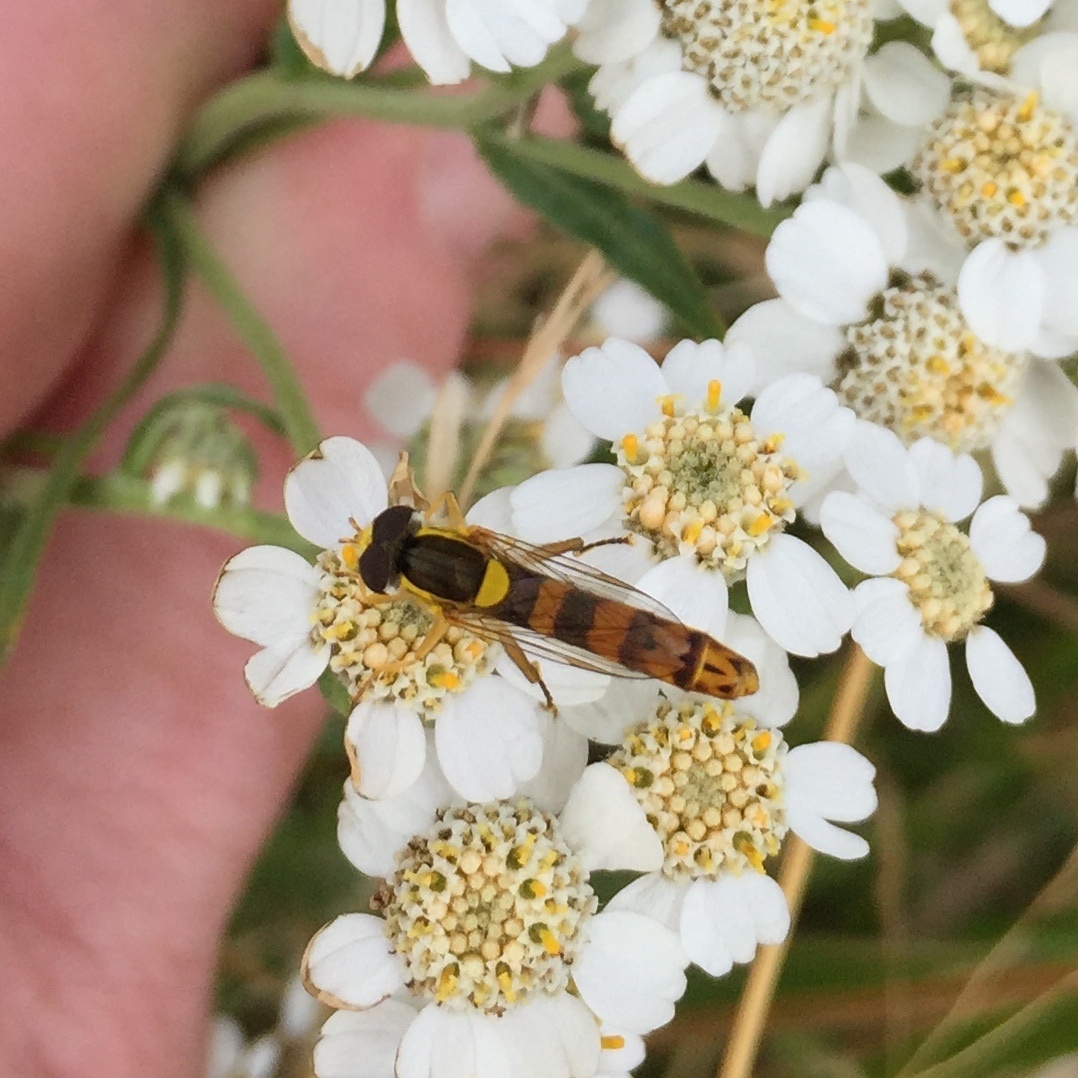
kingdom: Animalia
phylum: Arthropoda
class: Insecta
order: Diptera
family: Syrphidae
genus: Sphaerophoria
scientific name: Sphaerophoria scripta
